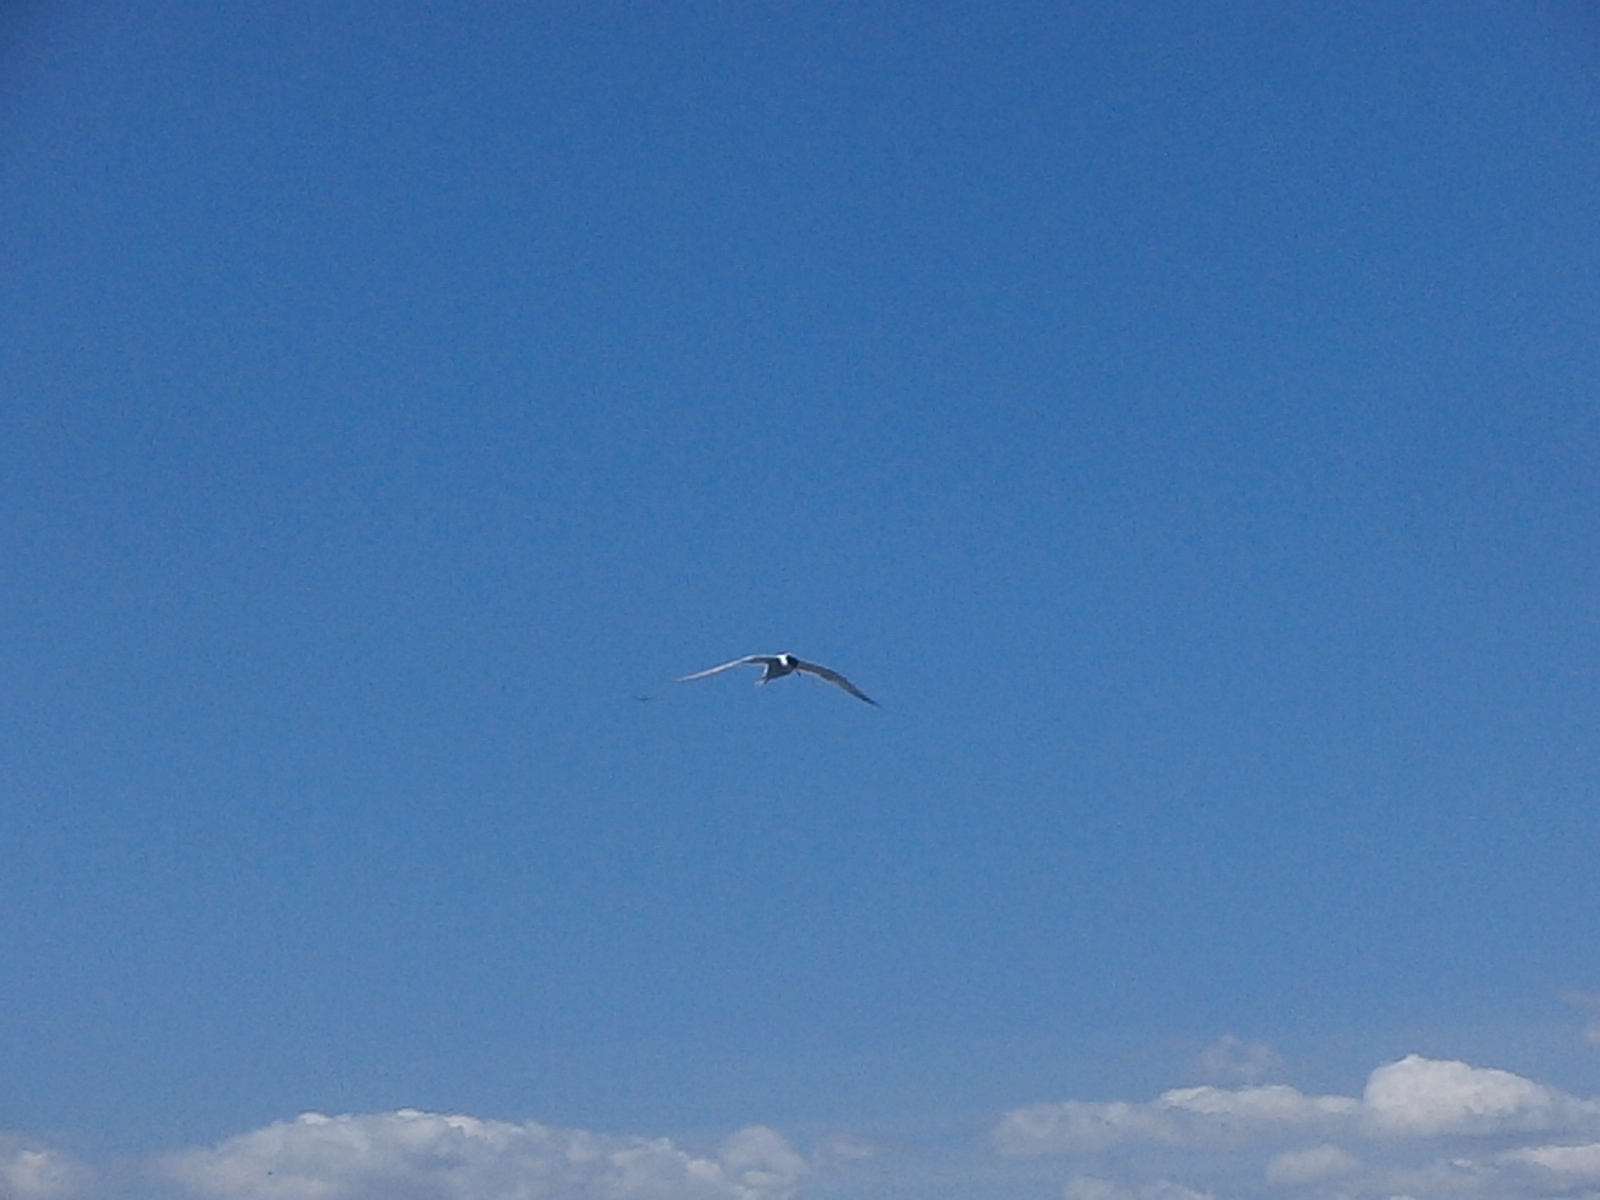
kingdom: Animalia
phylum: Chordata
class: Aves
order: Charadriiformes
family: Laridae
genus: Sterna
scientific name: Sterna hirundo
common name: Common tern
